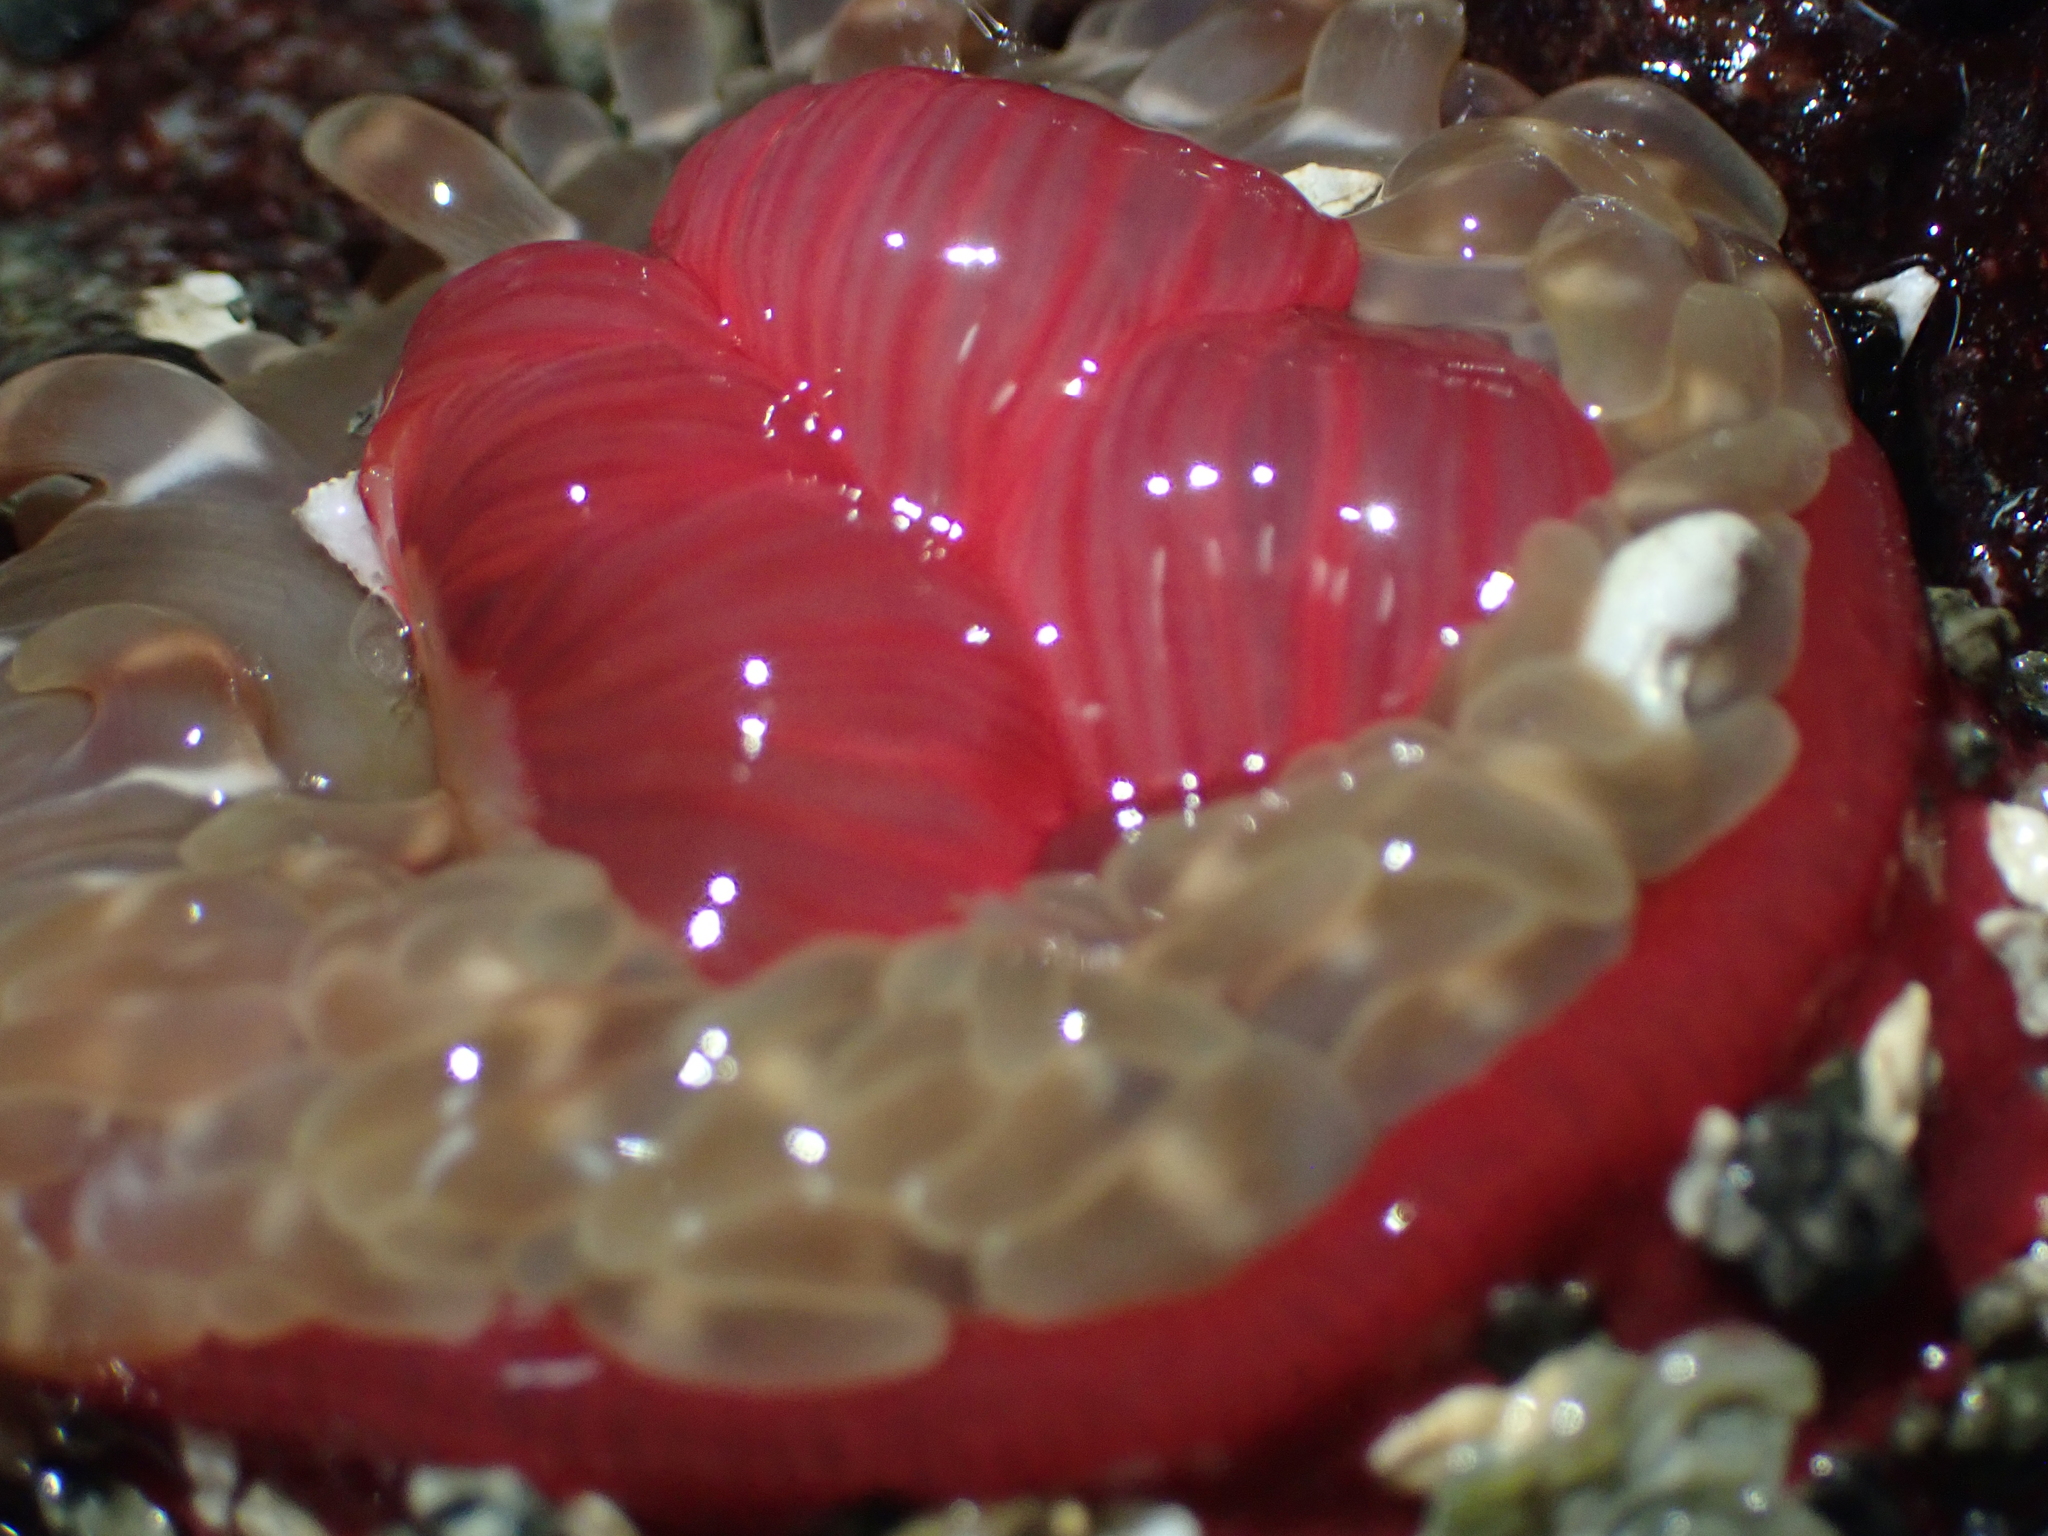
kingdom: Animalia
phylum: Cnidaria
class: Anthozoa
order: Actiniaria
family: Actiniidae
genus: Urticina
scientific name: Urticina clandestina
